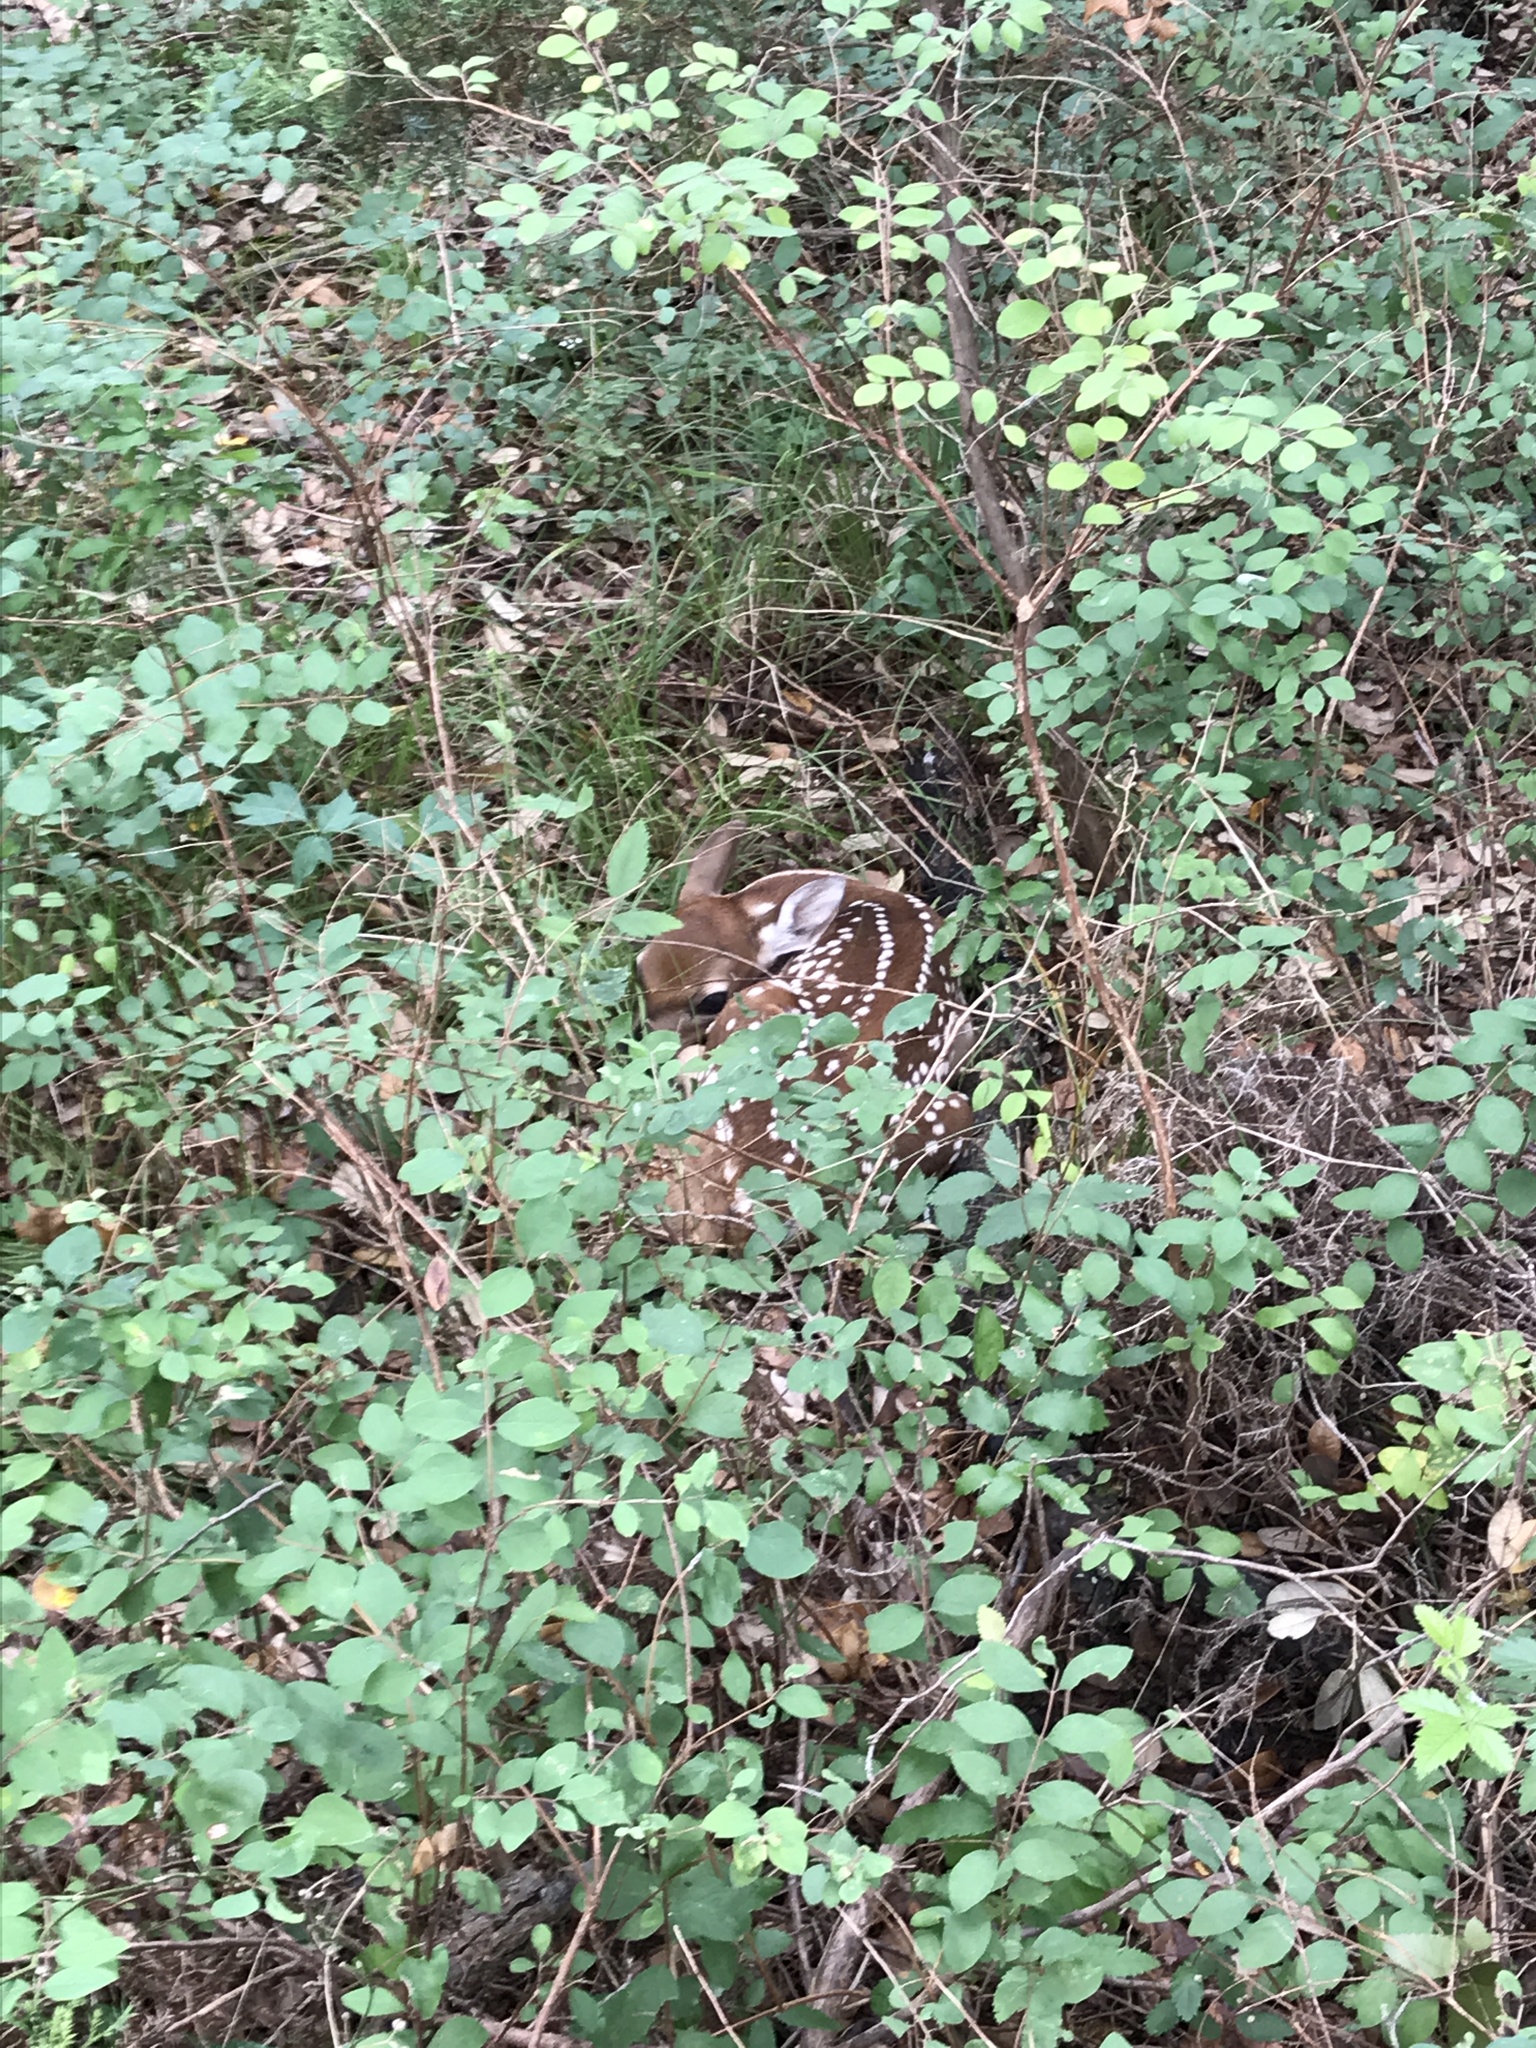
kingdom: Animalia
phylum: Chordata
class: Mammalia
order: Artiodactyla
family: Cervidae
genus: Odocoileus
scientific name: Odocoileus virginianus
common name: White-tailed deer
